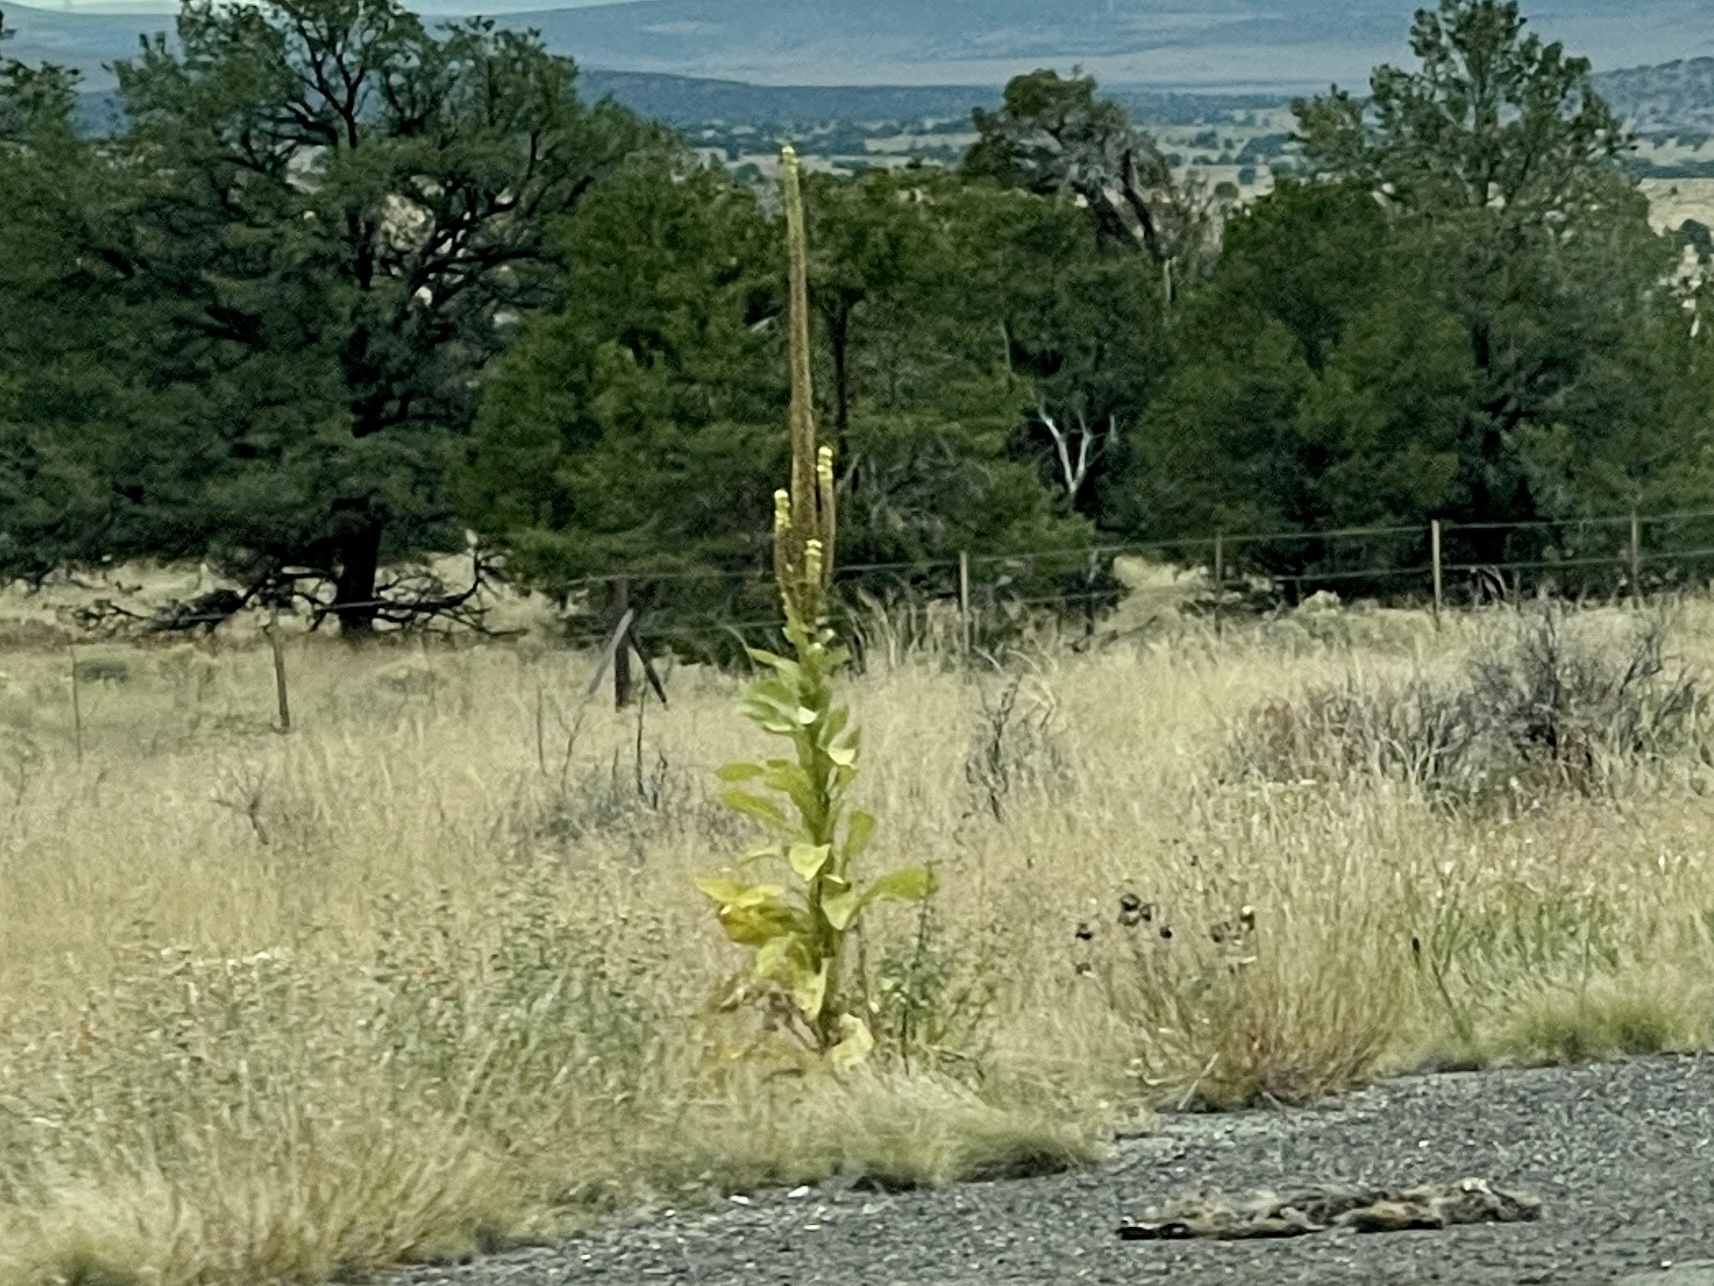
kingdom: Plantae
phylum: Tracheophyta
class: Magnoliopsida
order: Lamiales
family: Scrophulariaceae
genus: Verbascum
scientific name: Verbascum thapsus
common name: Common mullein
